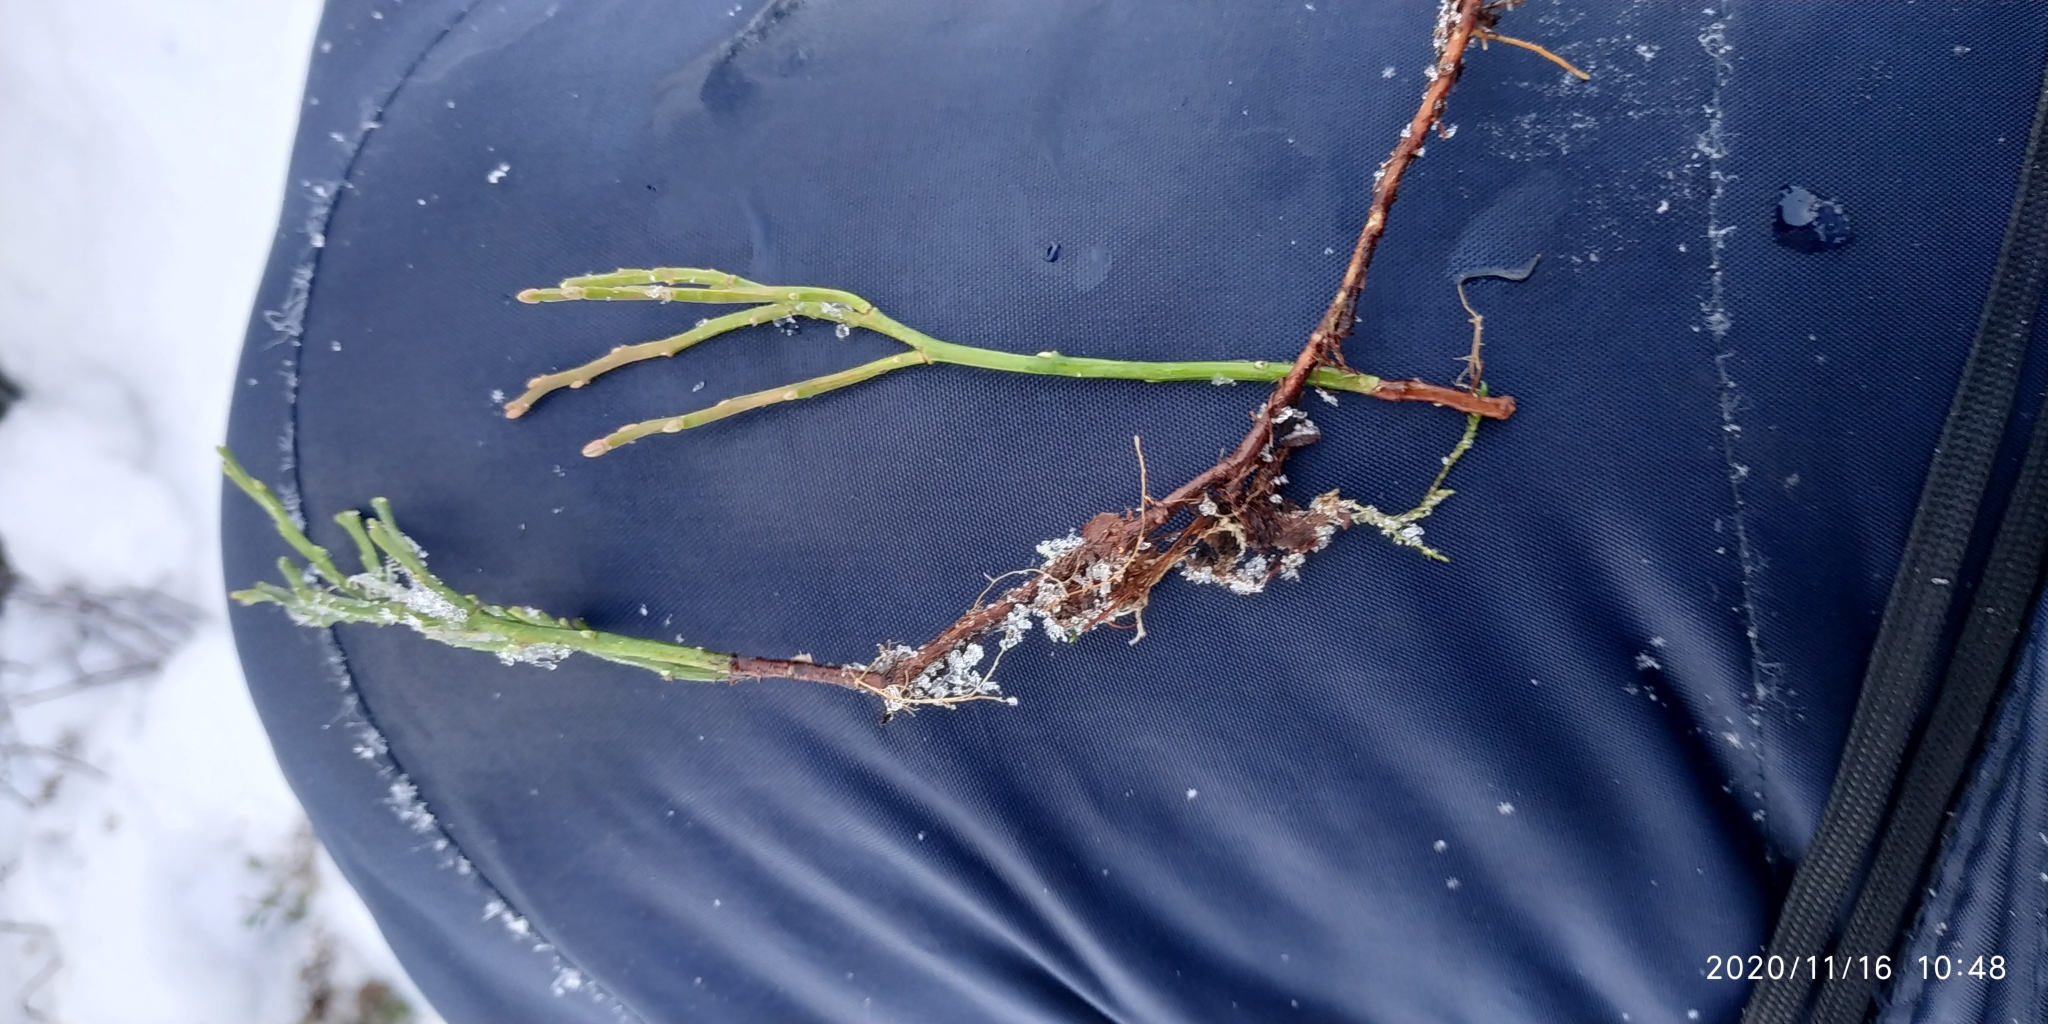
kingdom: Plantae
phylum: Tracheophyta
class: Magnoliopsida
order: Ericales
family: Ericaceae
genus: Vaccinium
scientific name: Vaccinium myrtillus
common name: Bilberry
